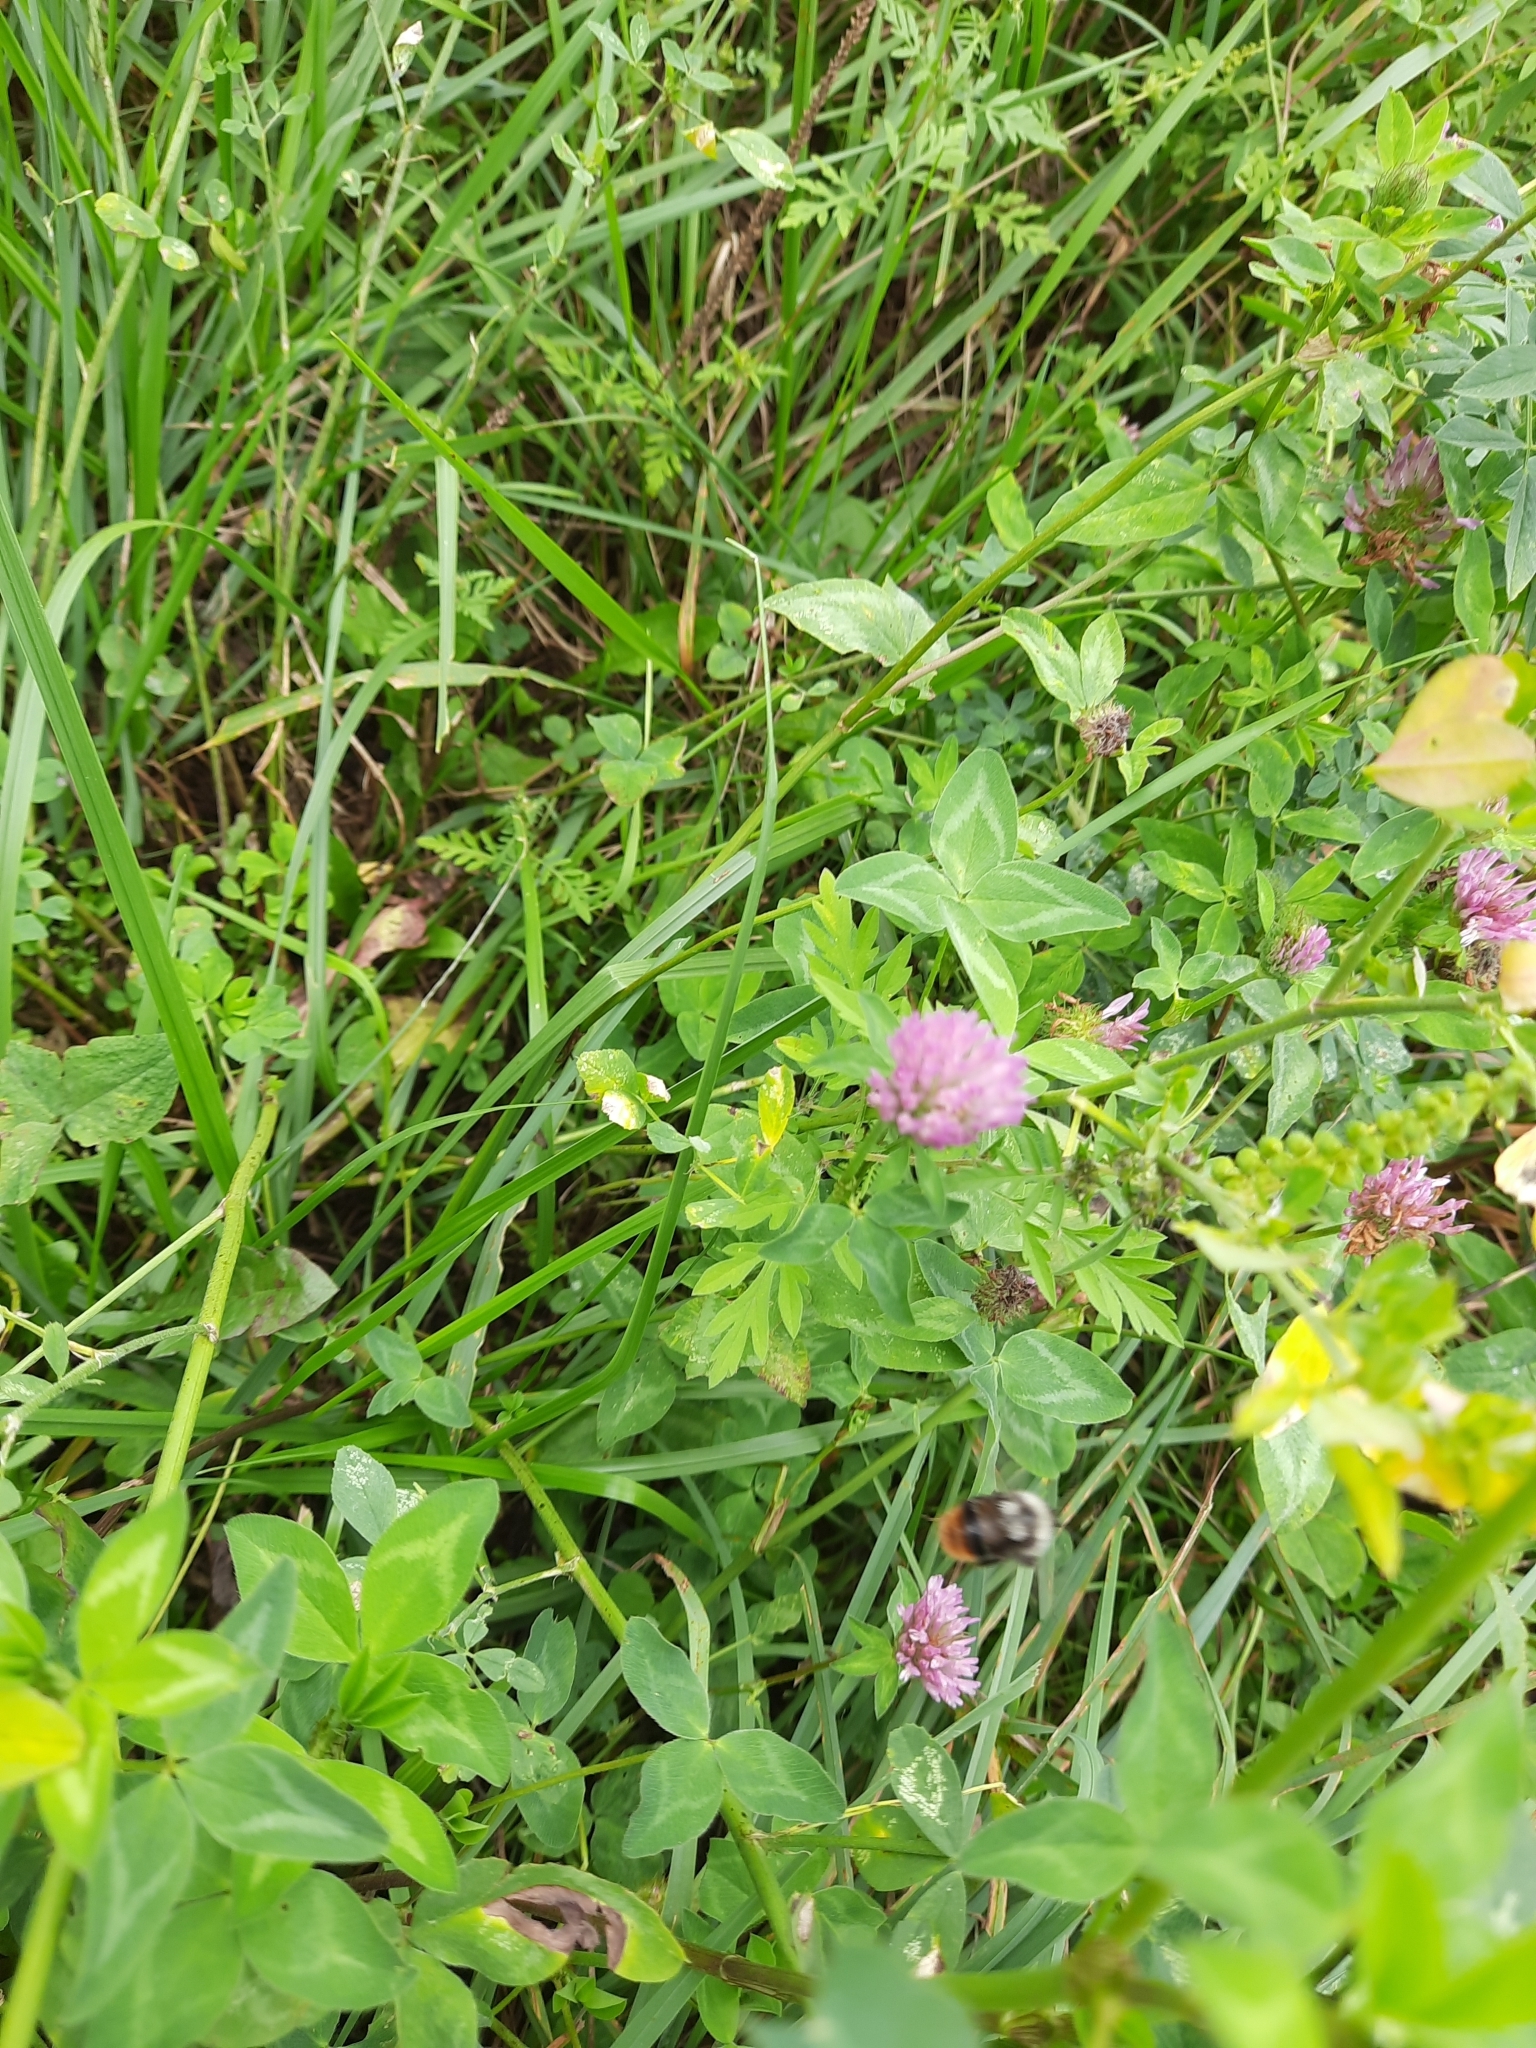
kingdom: Plantae
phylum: Tracheophyta
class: Magnoliopsida
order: Fabales
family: Fabaceae
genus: Trifolium
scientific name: Trifolium pratense
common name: Red clover
